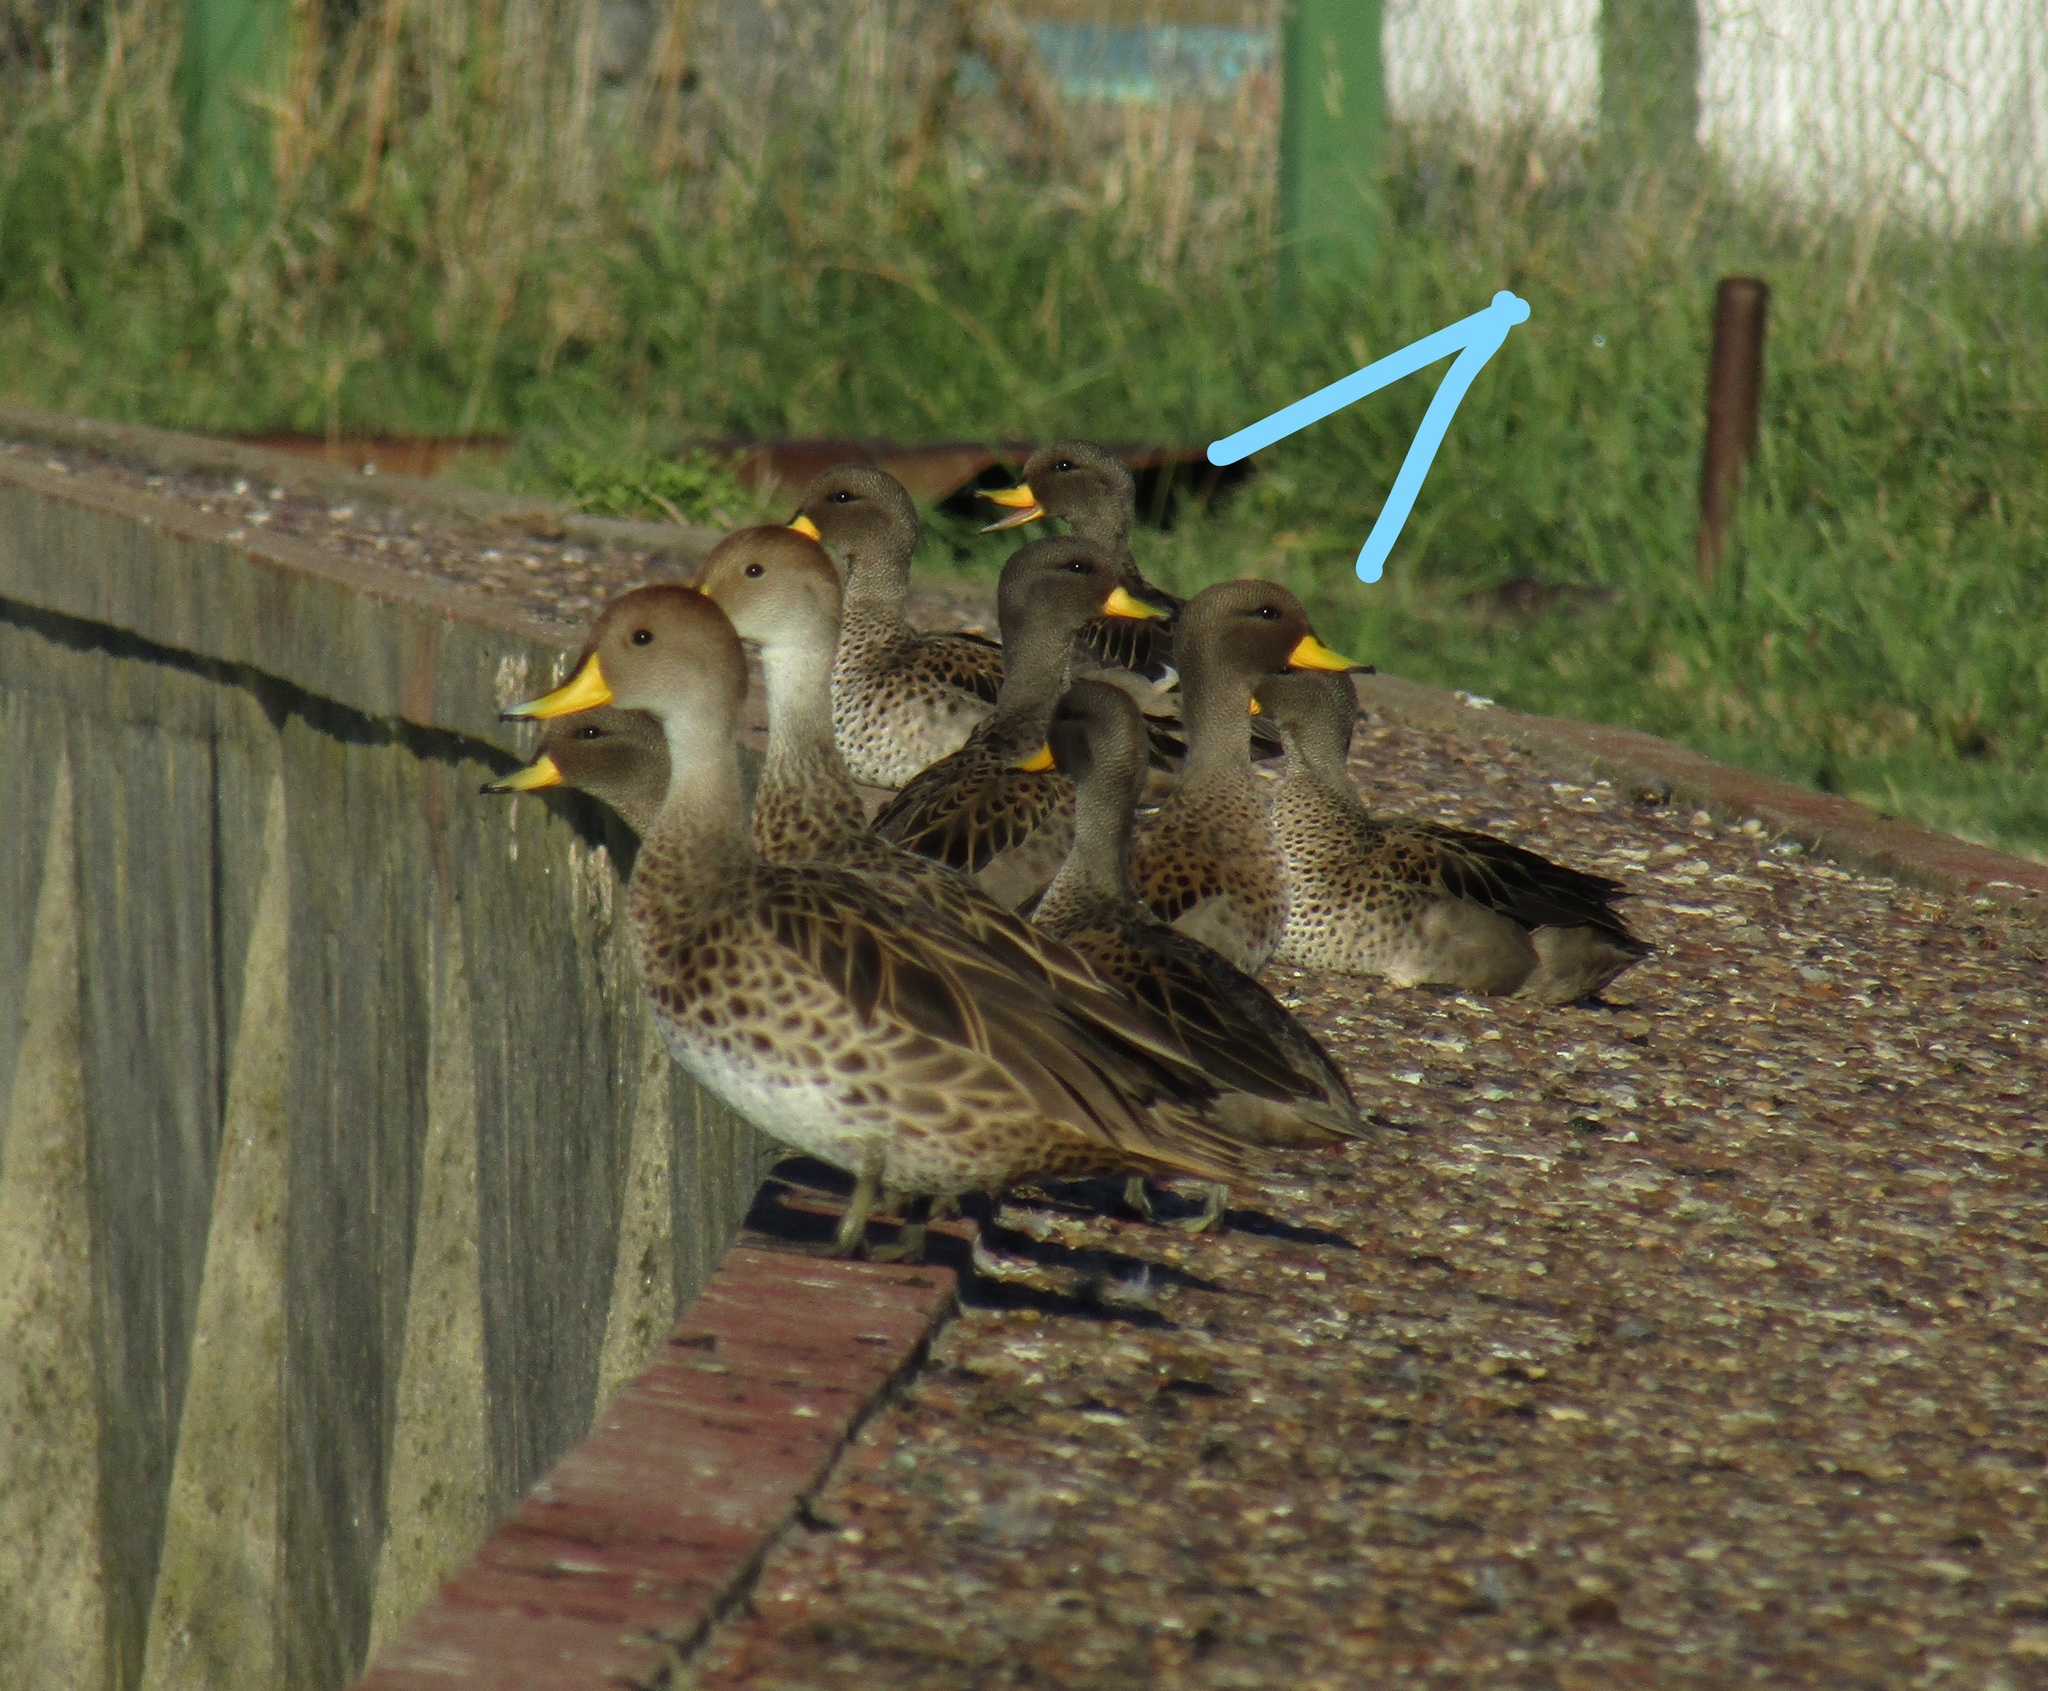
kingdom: Animalia
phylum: Chordata
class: Aves
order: Anseriformes
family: Anatidae
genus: Anas
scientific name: Anas flavirostris
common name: Yellow-billed teal
